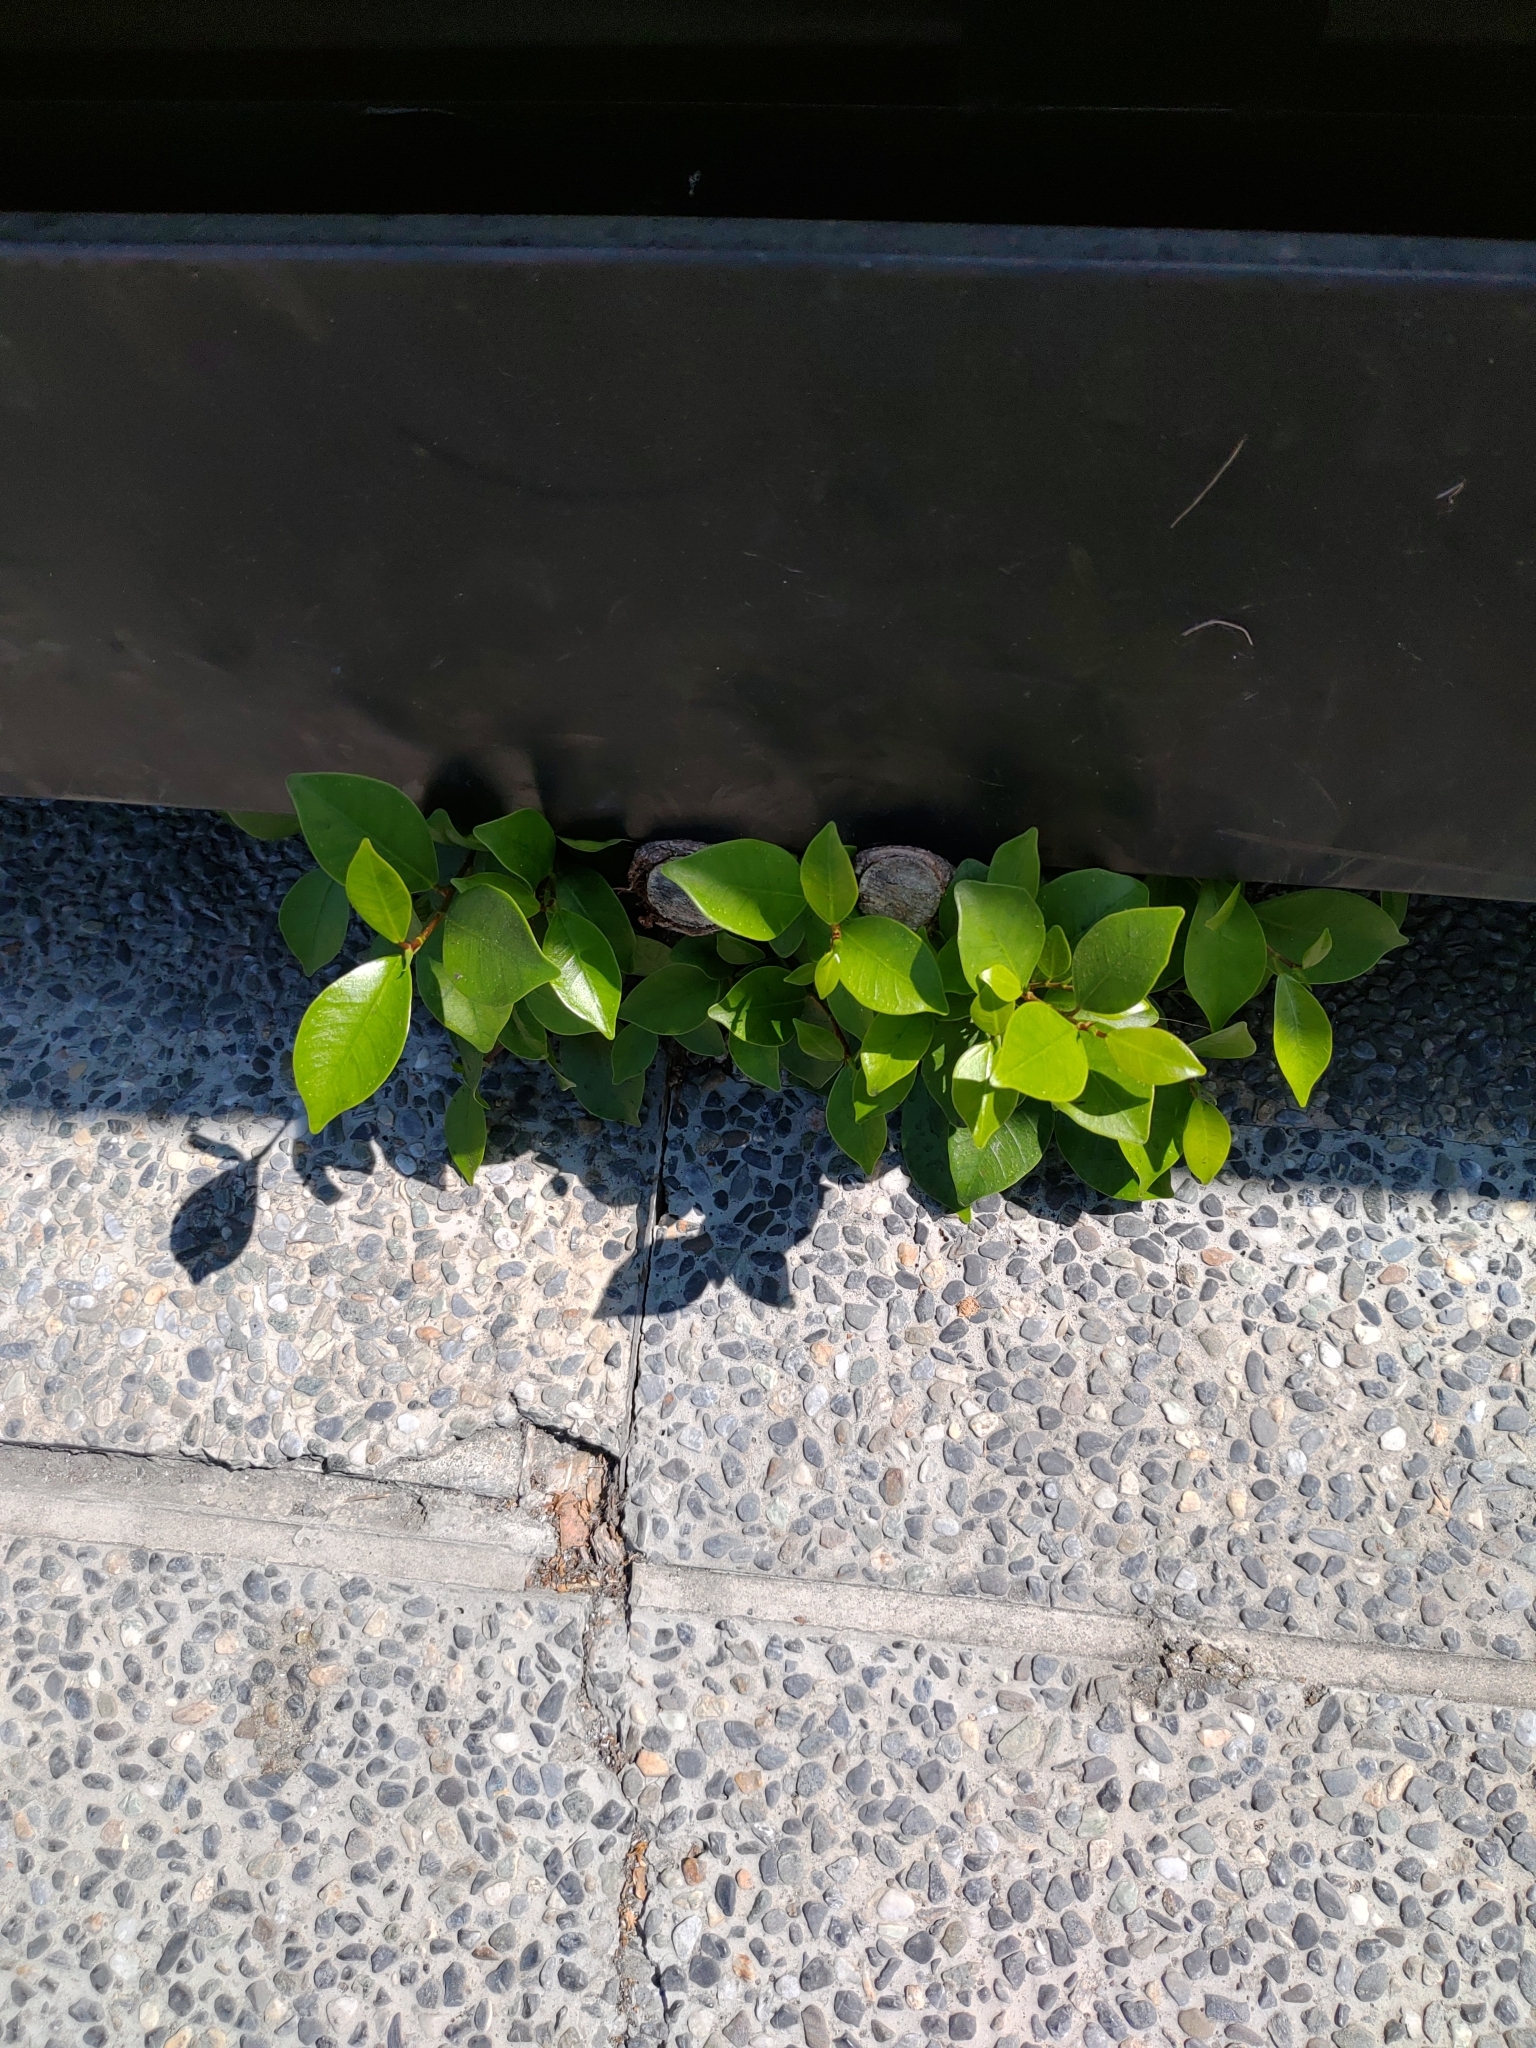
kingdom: Plantae
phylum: Tracheophyta
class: Magnoliopsida
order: Rosales
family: Moraceae
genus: Ficus
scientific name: Ficus microcarpa
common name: Chinese banyan
